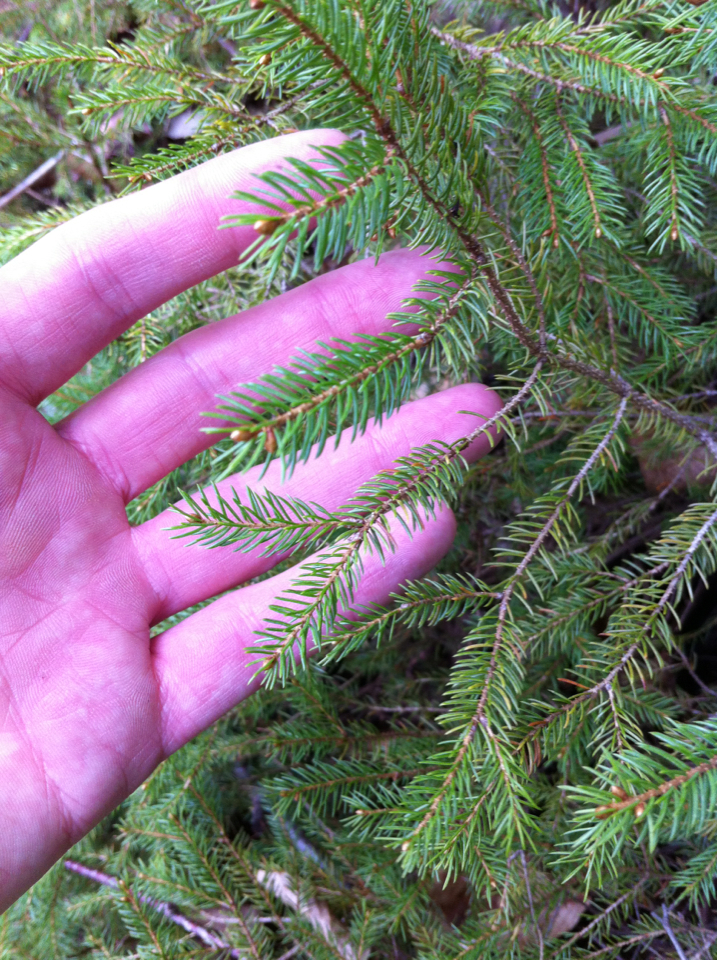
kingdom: Plantae
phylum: Tracheophyta
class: Pinopsida
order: Pinales
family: Pinaceae
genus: Picea
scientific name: Picea mariana
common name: Black spruce
